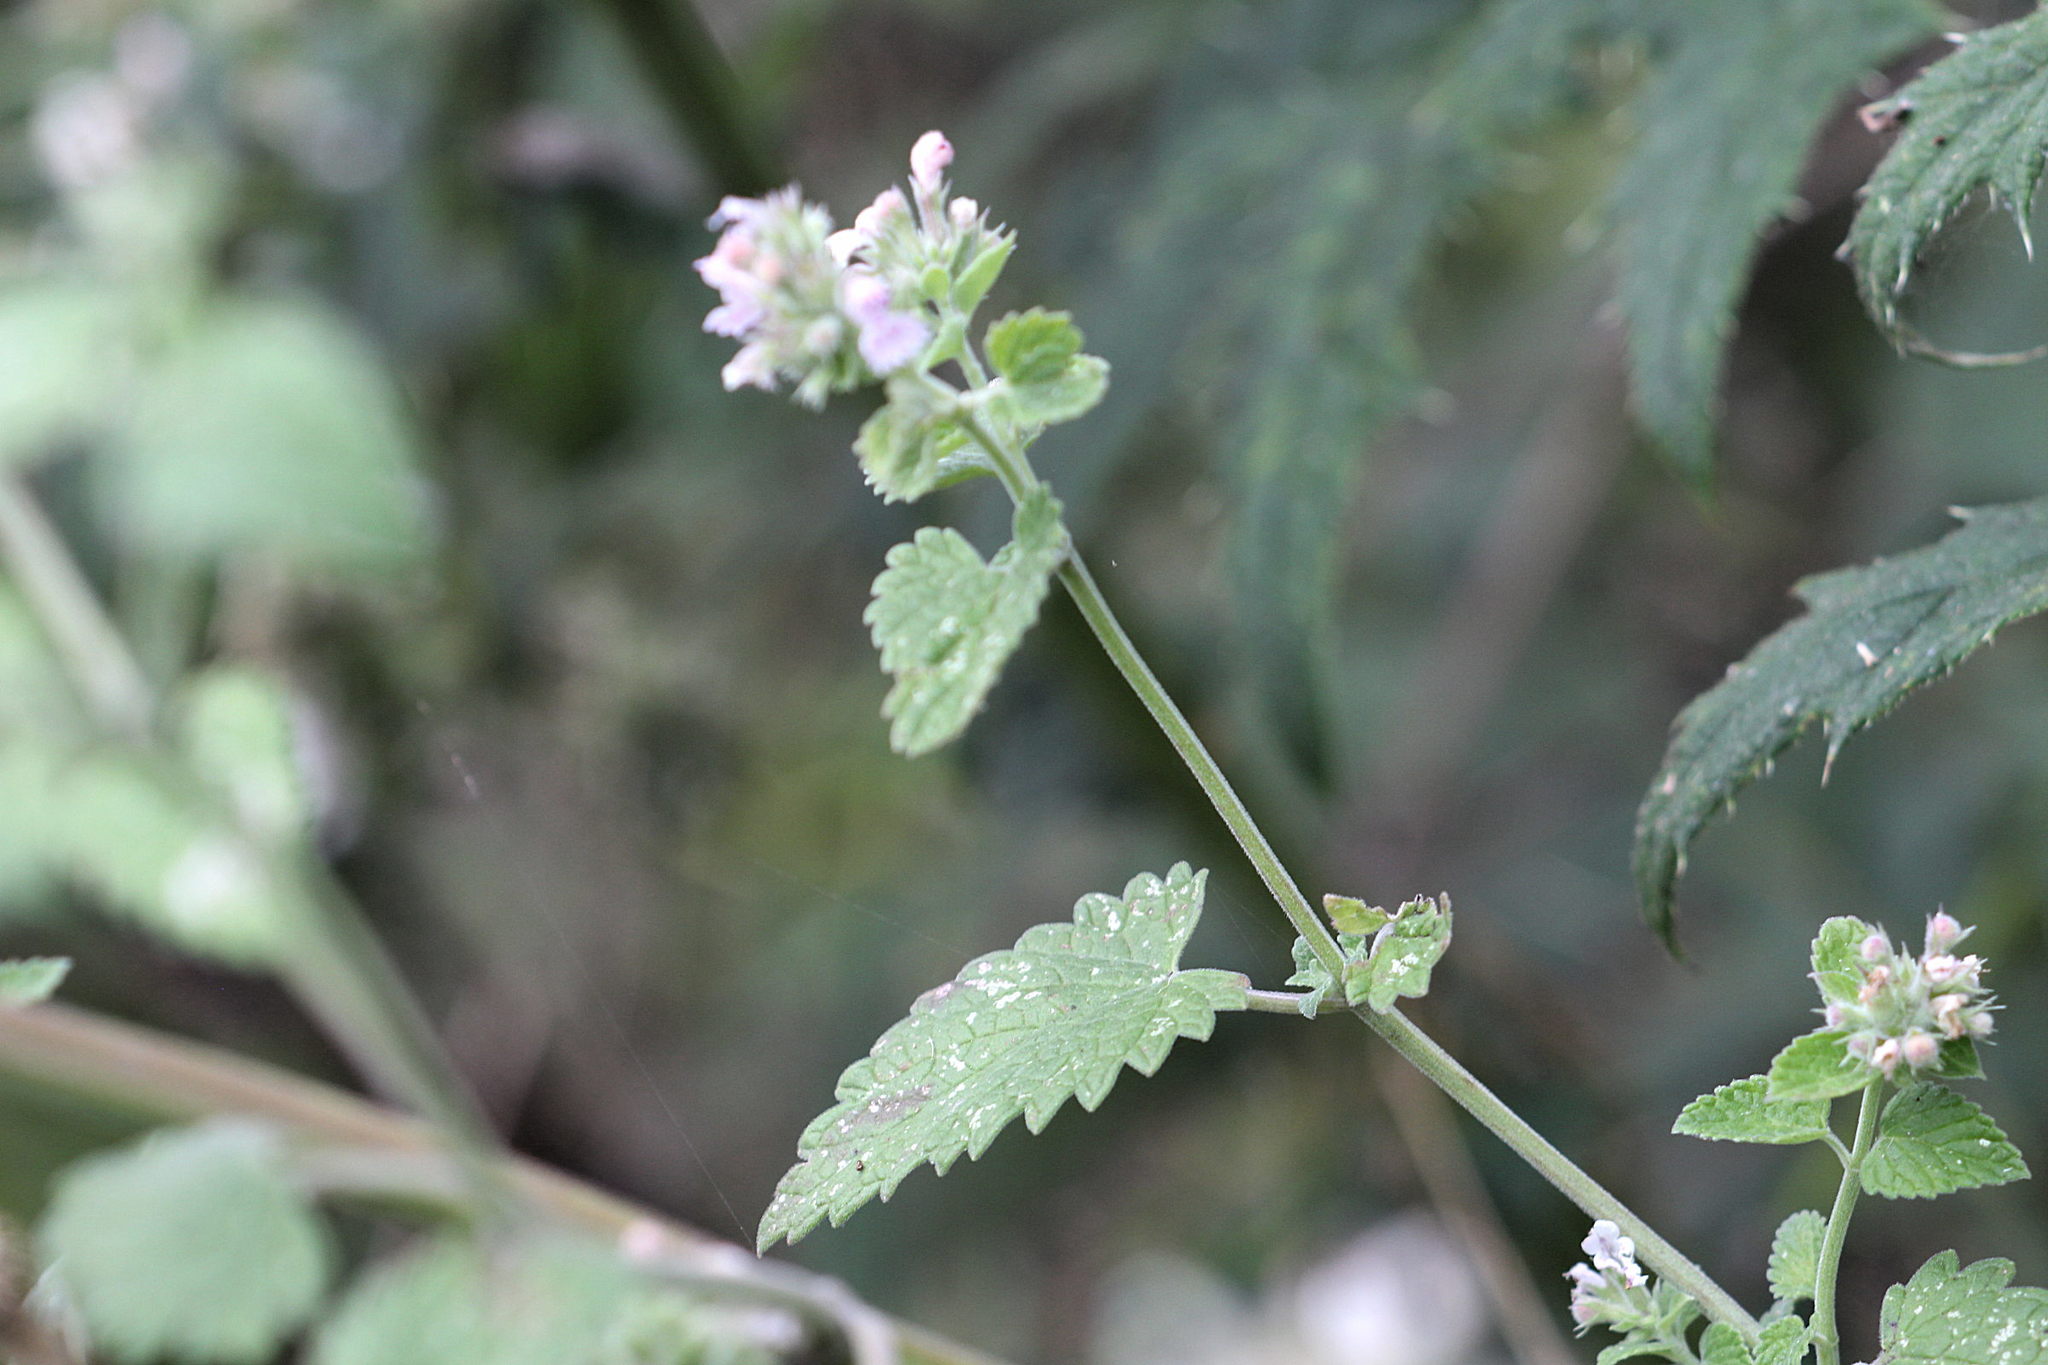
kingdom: Plantae
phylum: Tracheophyta
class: Magnoliopsida
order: Lamiales
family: Lamiaceae
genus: Nepeta
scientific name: Nepeta cataria
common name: Catnip
